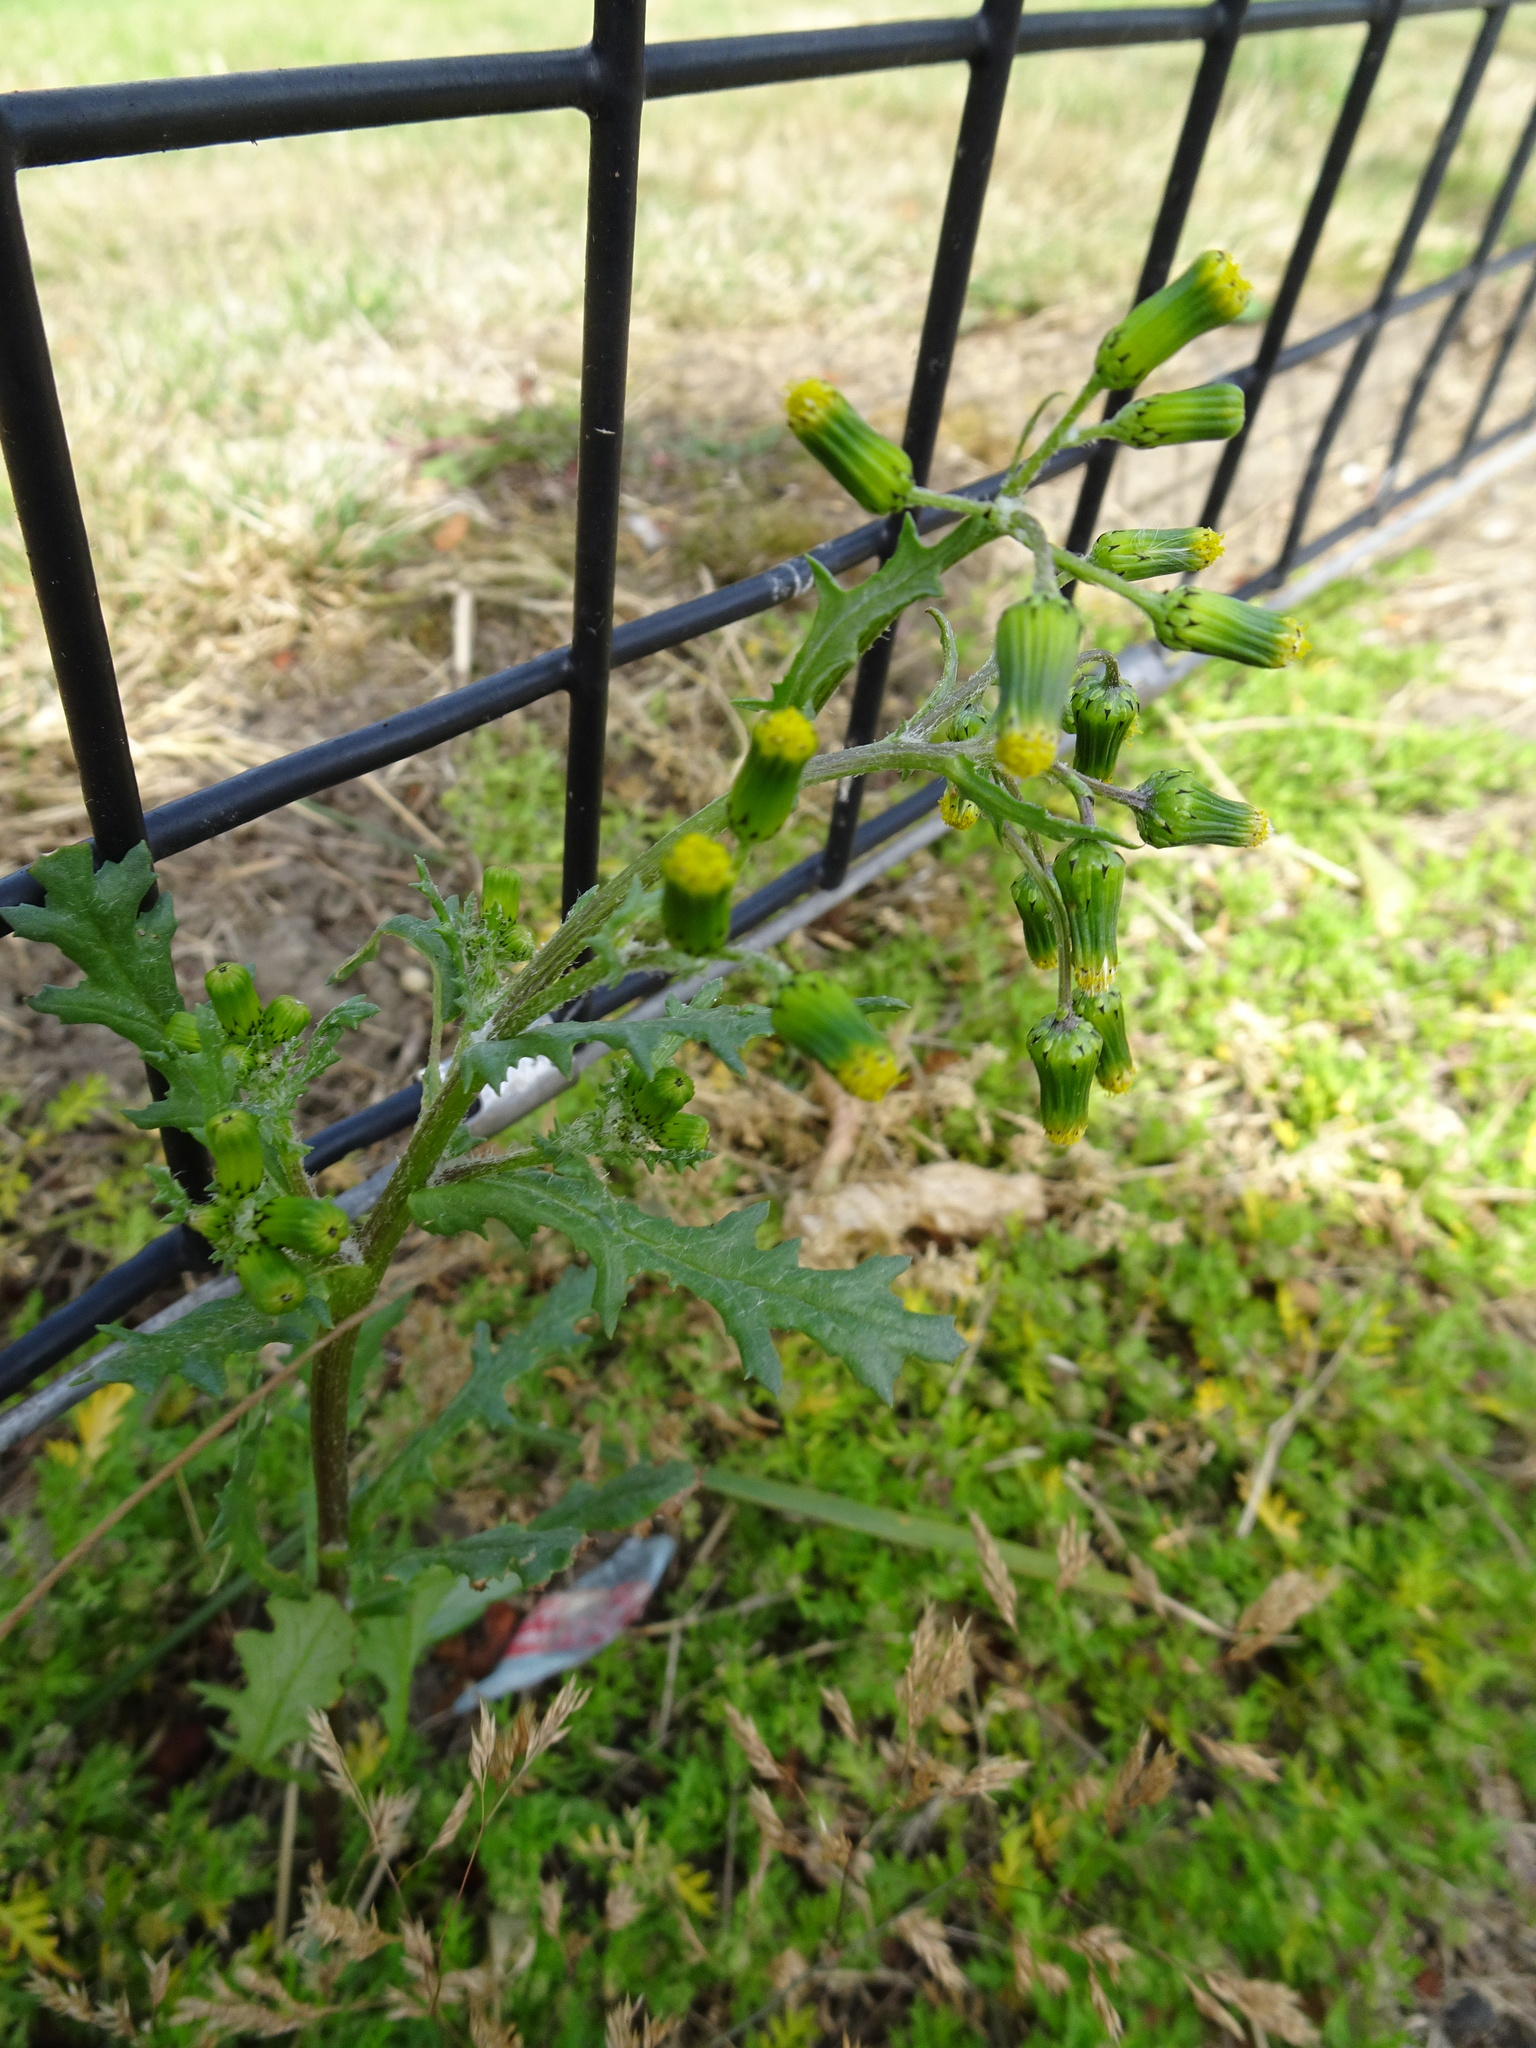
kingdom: Plantae
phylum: Tracheophyta
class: Magnoliopsida
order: Asterales
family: Asteraceae
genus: Senecio
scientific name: Senecio vulgaris
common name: Old-man-in-the-spring
